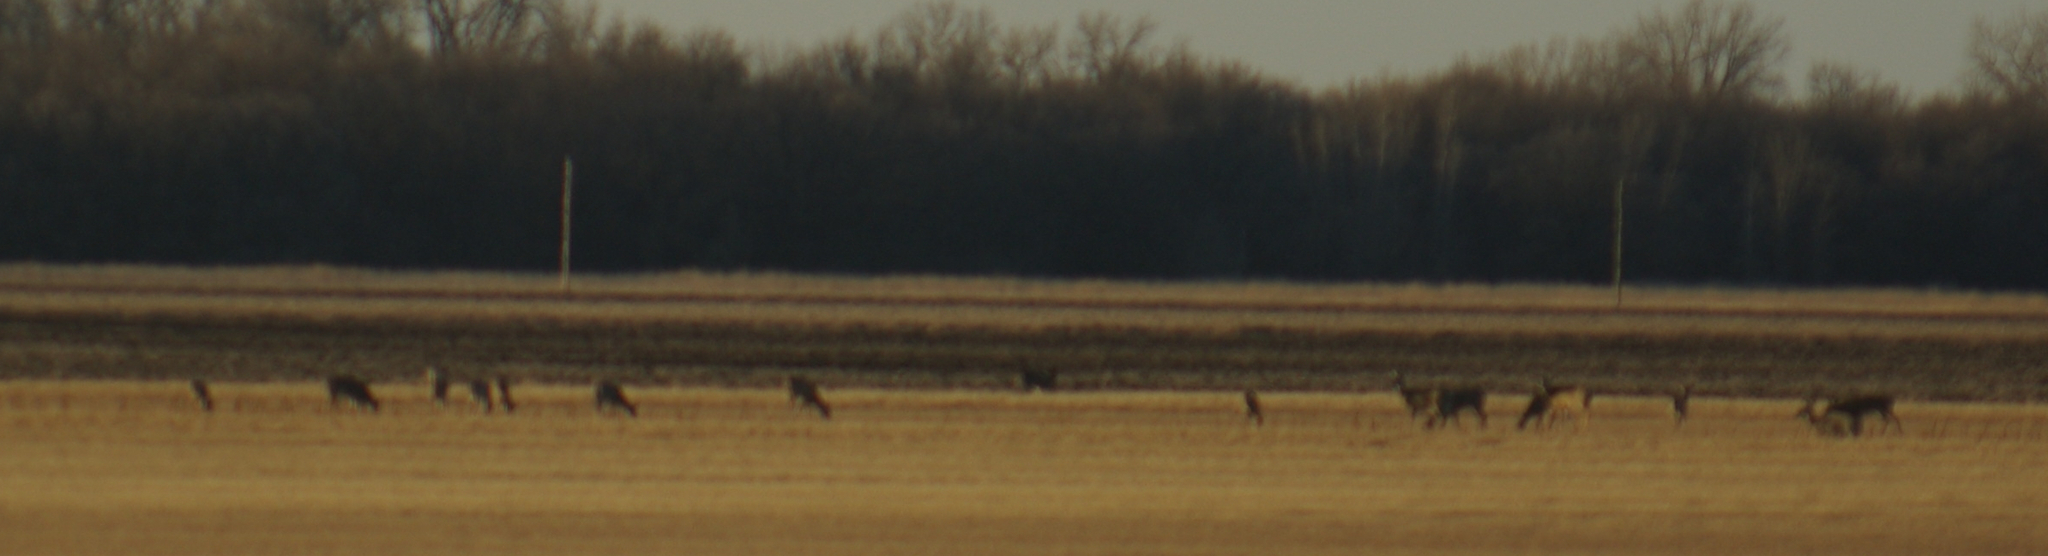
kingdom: Animalia
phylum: Chordata
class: Mammalia
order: Artiodactyla
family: Cervidae
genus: Odocoileus
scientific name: Odocoileus virginianus
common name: White-tailed deer
